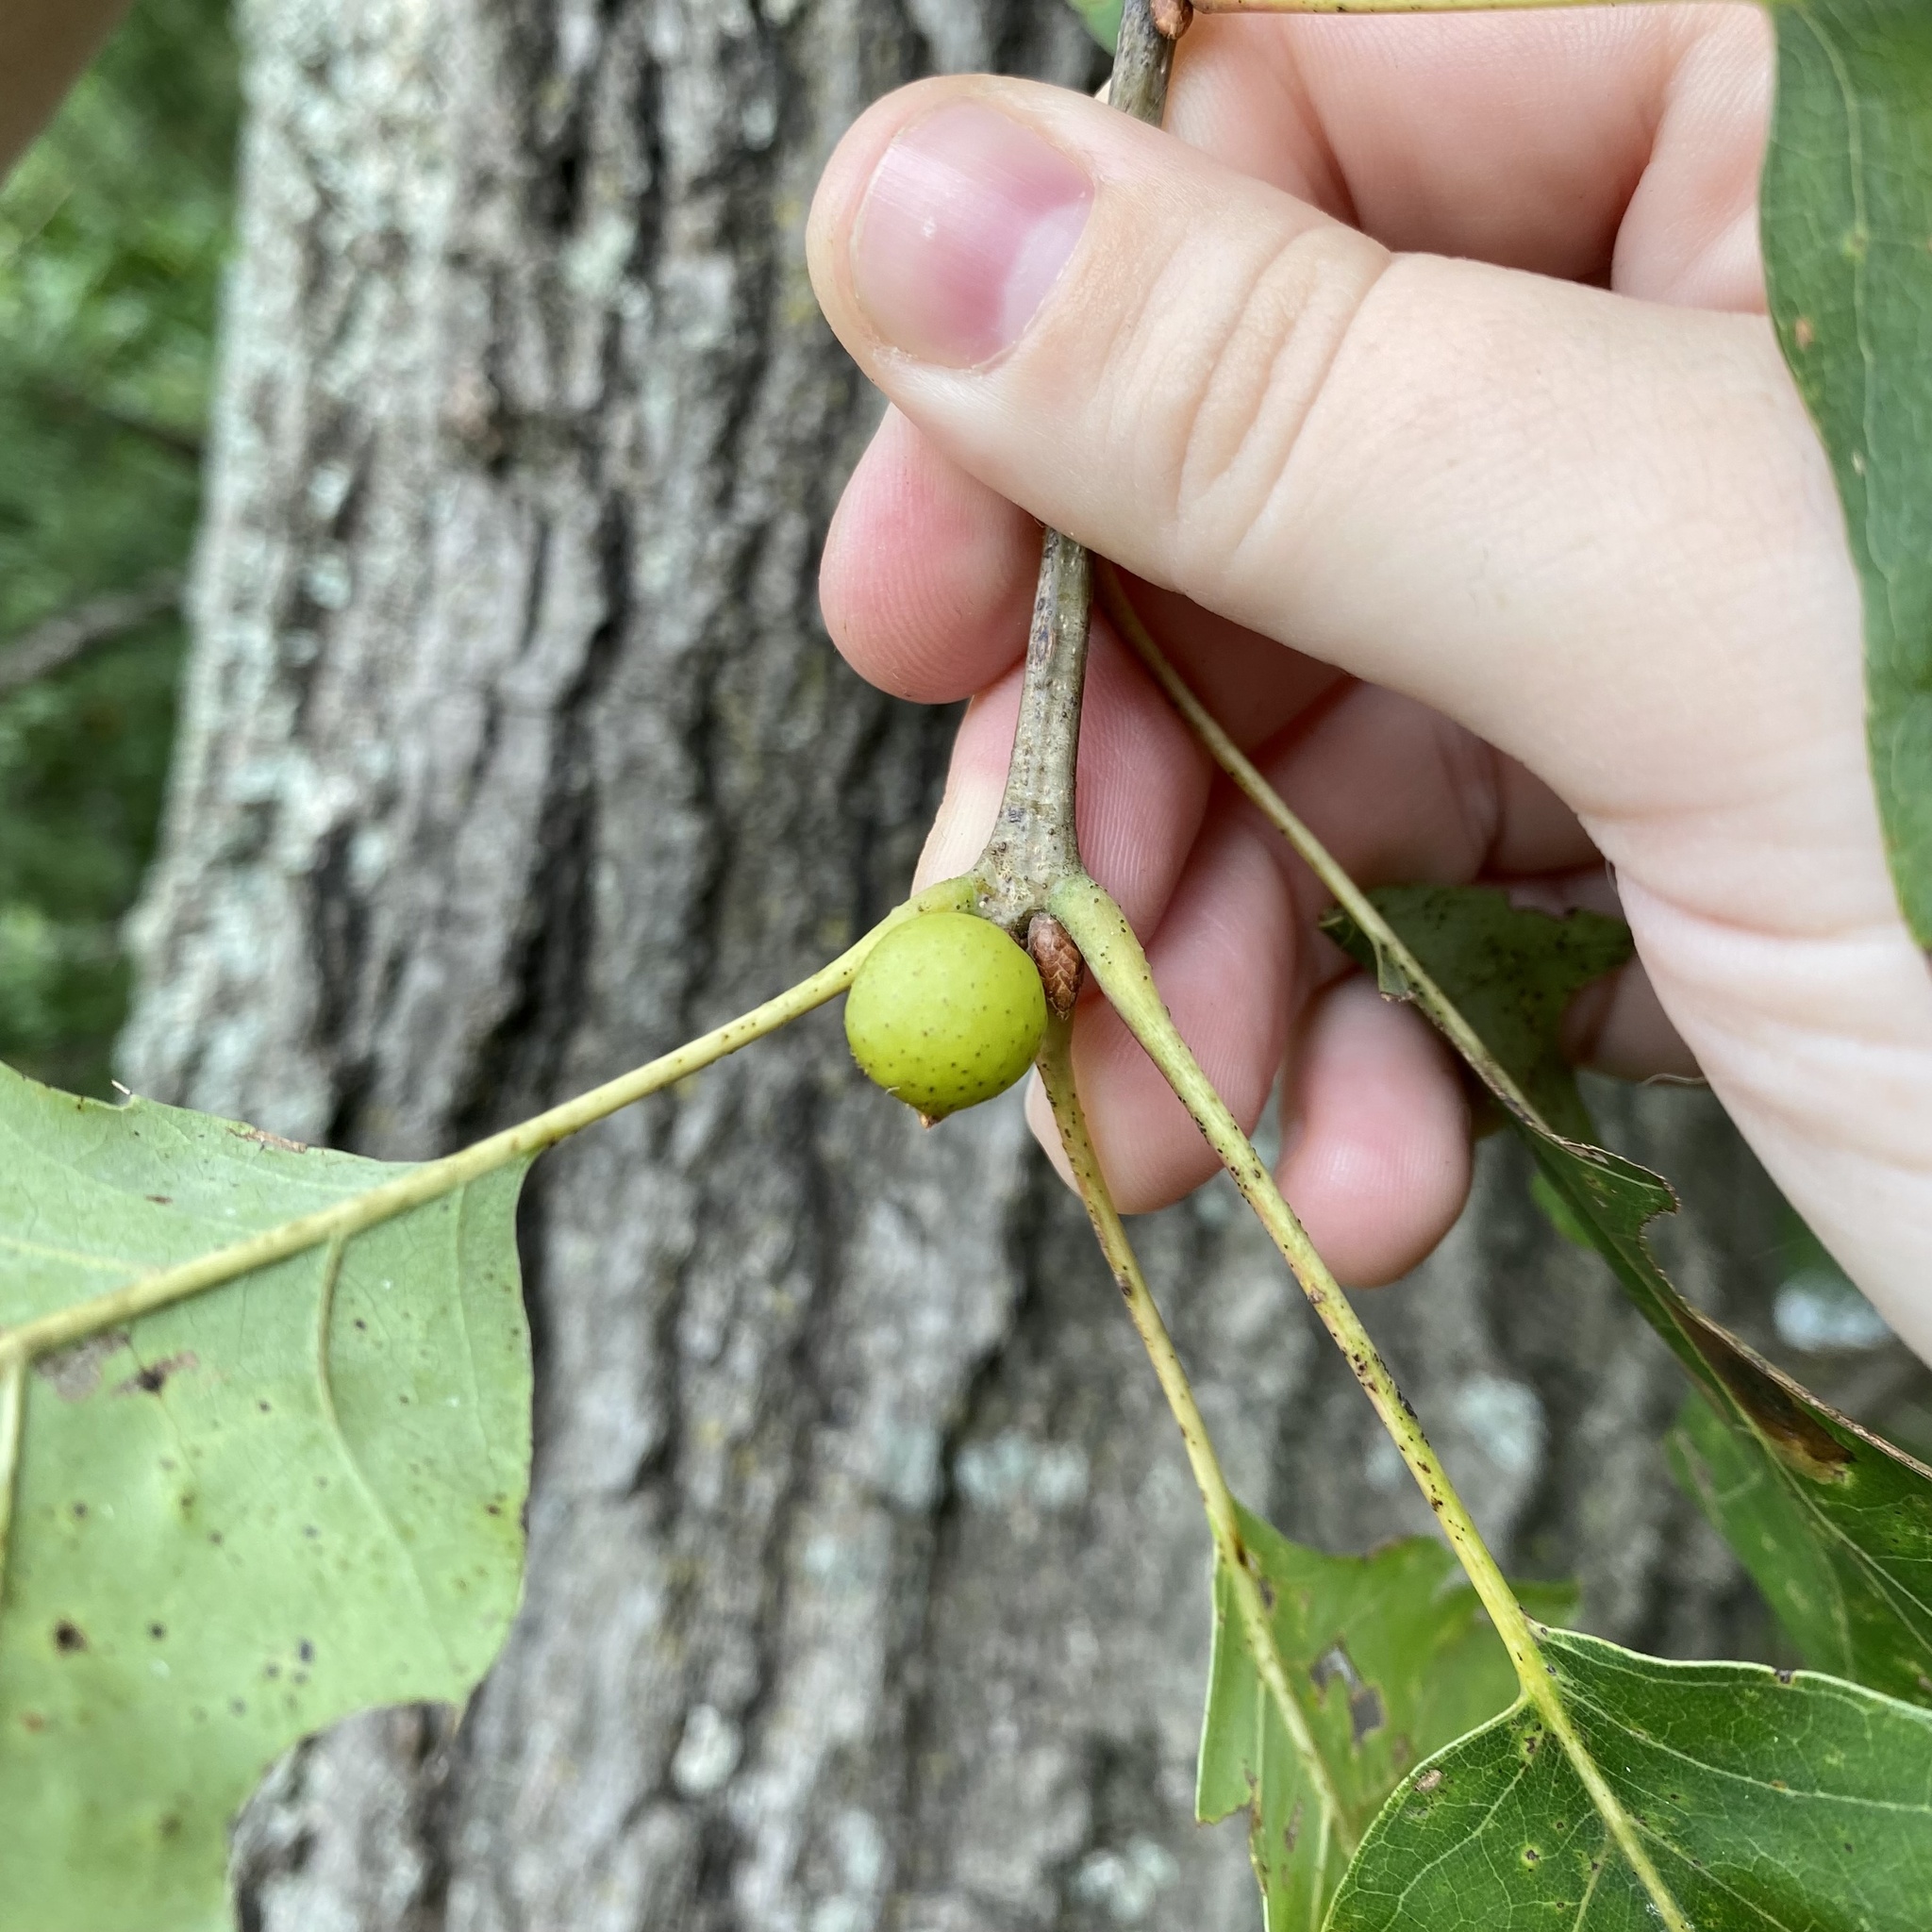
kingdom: Animalia
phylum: Arthropoda
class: Insecta
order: Hymenoptera
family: Cynipidae
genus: Amphibolips
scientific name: Amphibolips
